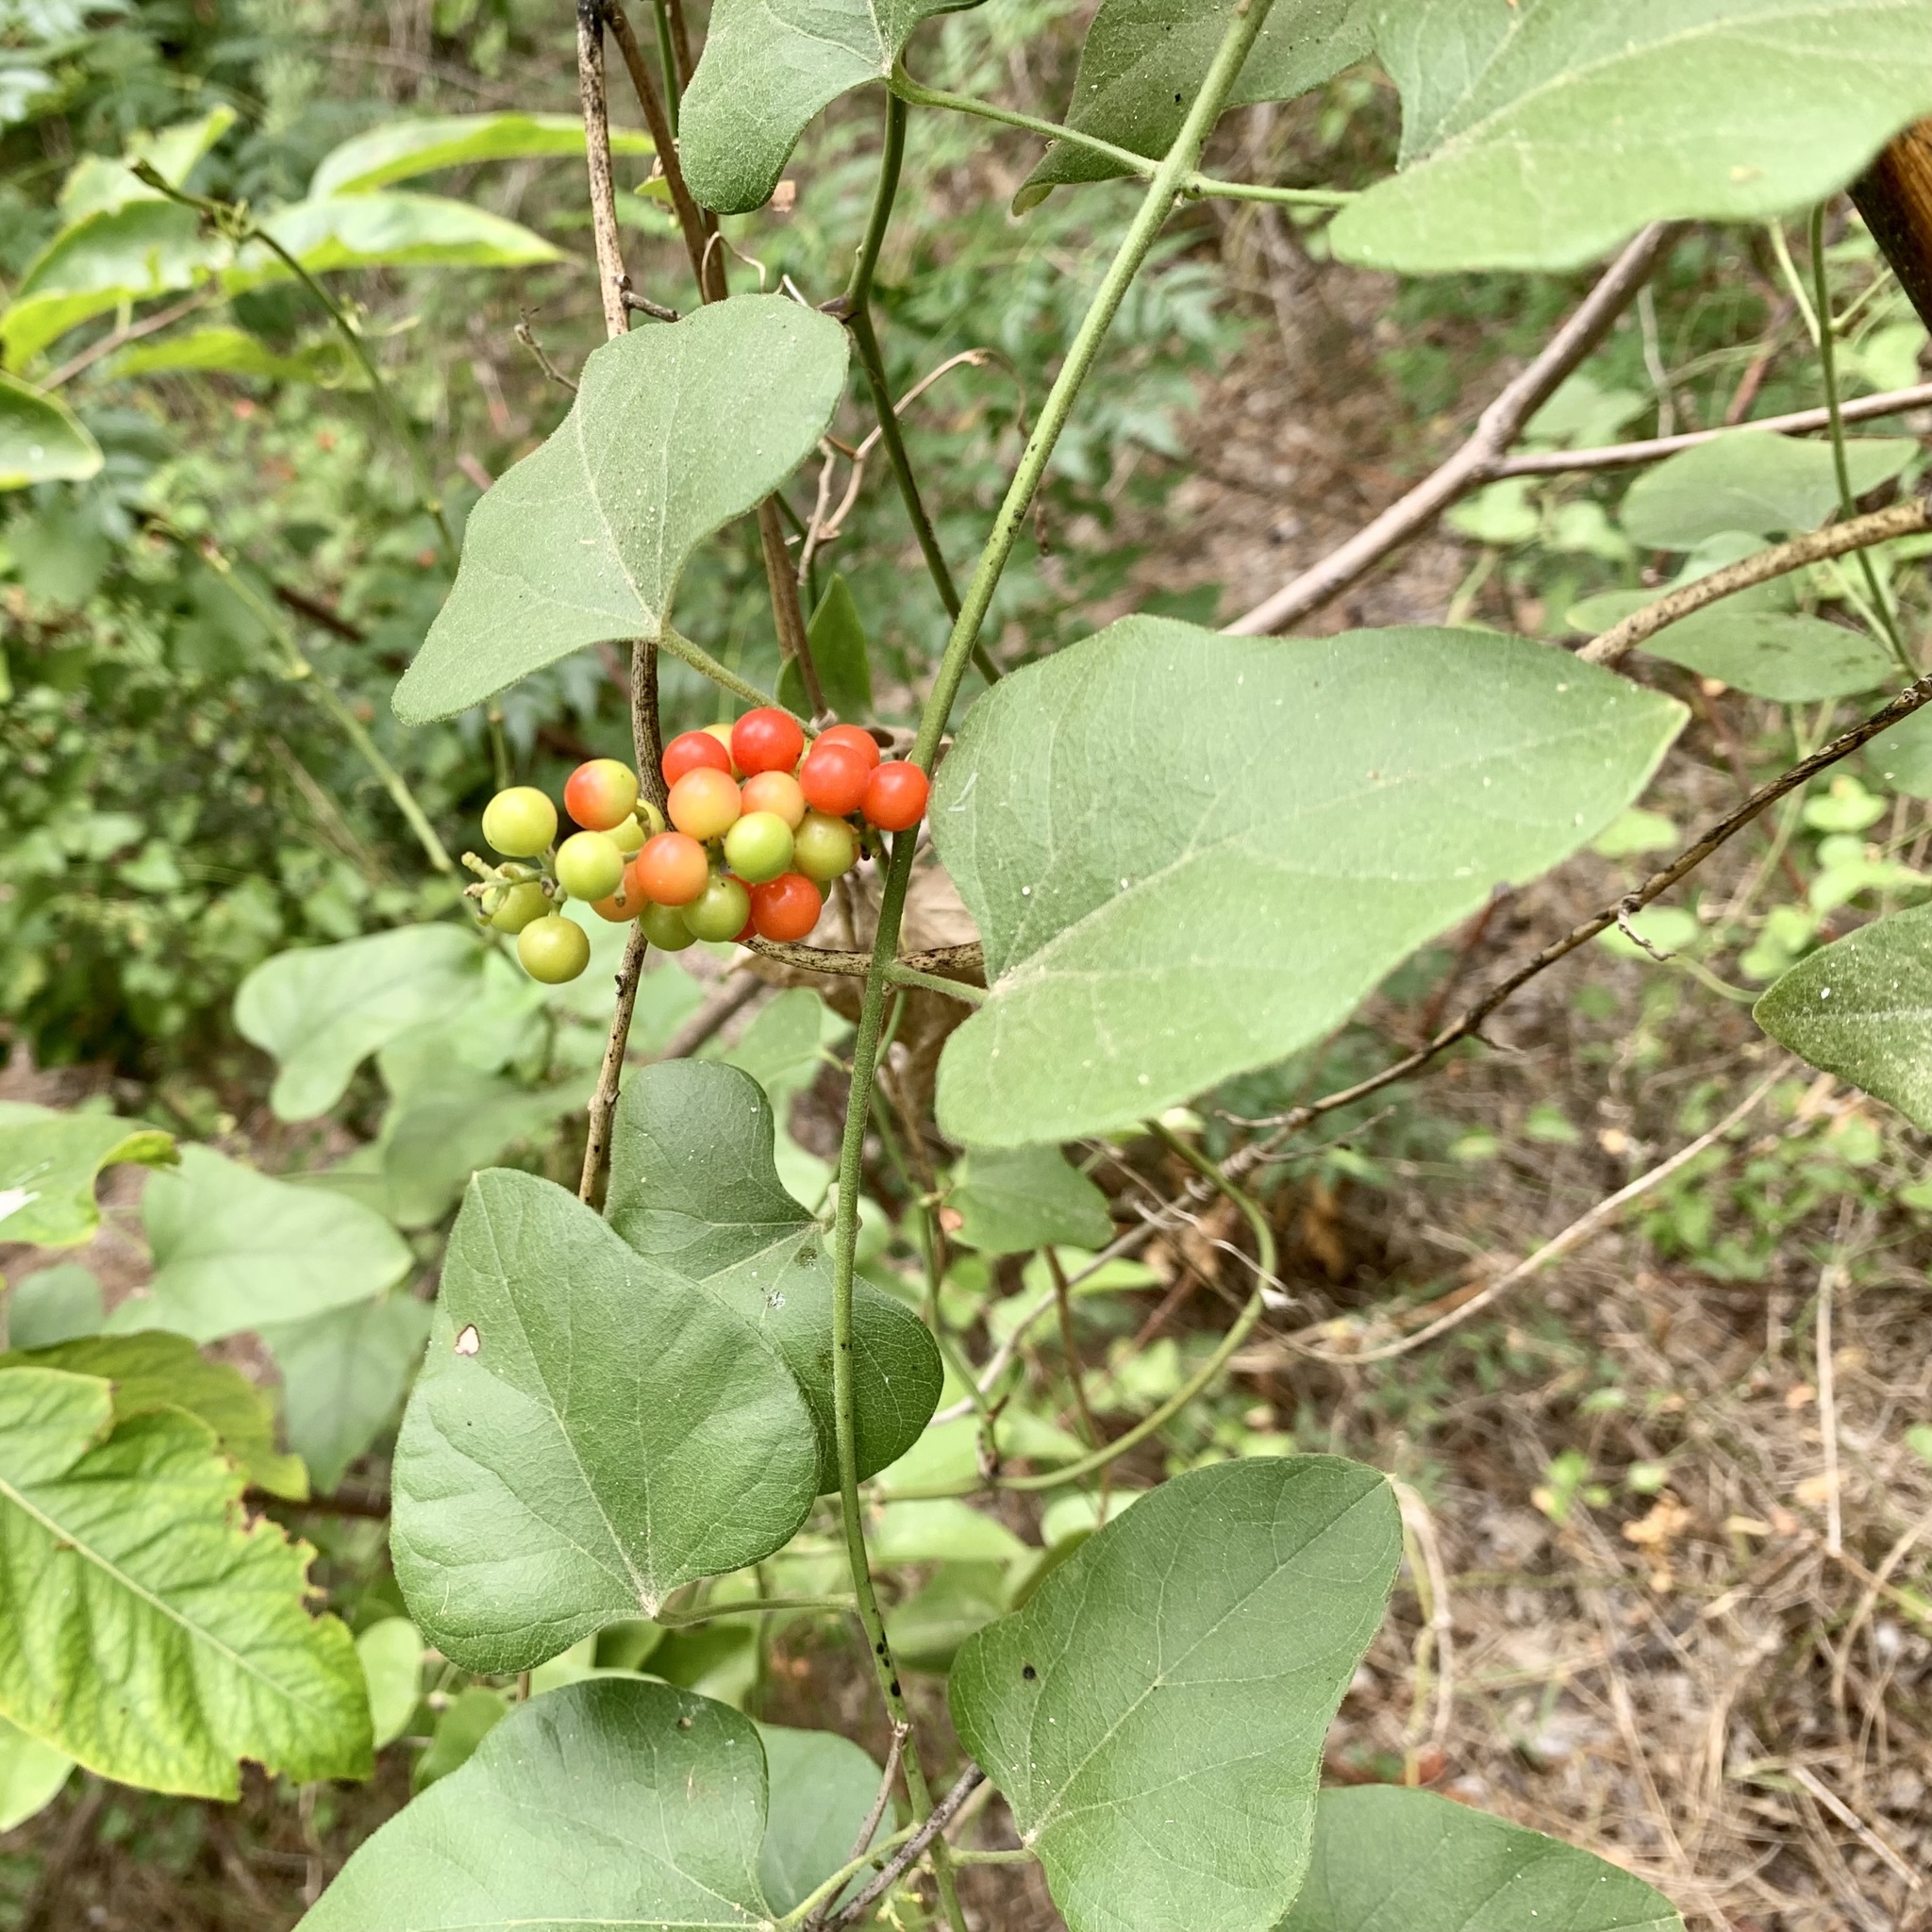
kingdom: Plantae
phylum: Tracheophyta
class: Magnoliopsida
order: Ranunculales
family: Menispermaceae
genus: Cocculus
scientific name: Cocculus carolinus
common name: Carolina moonseed
